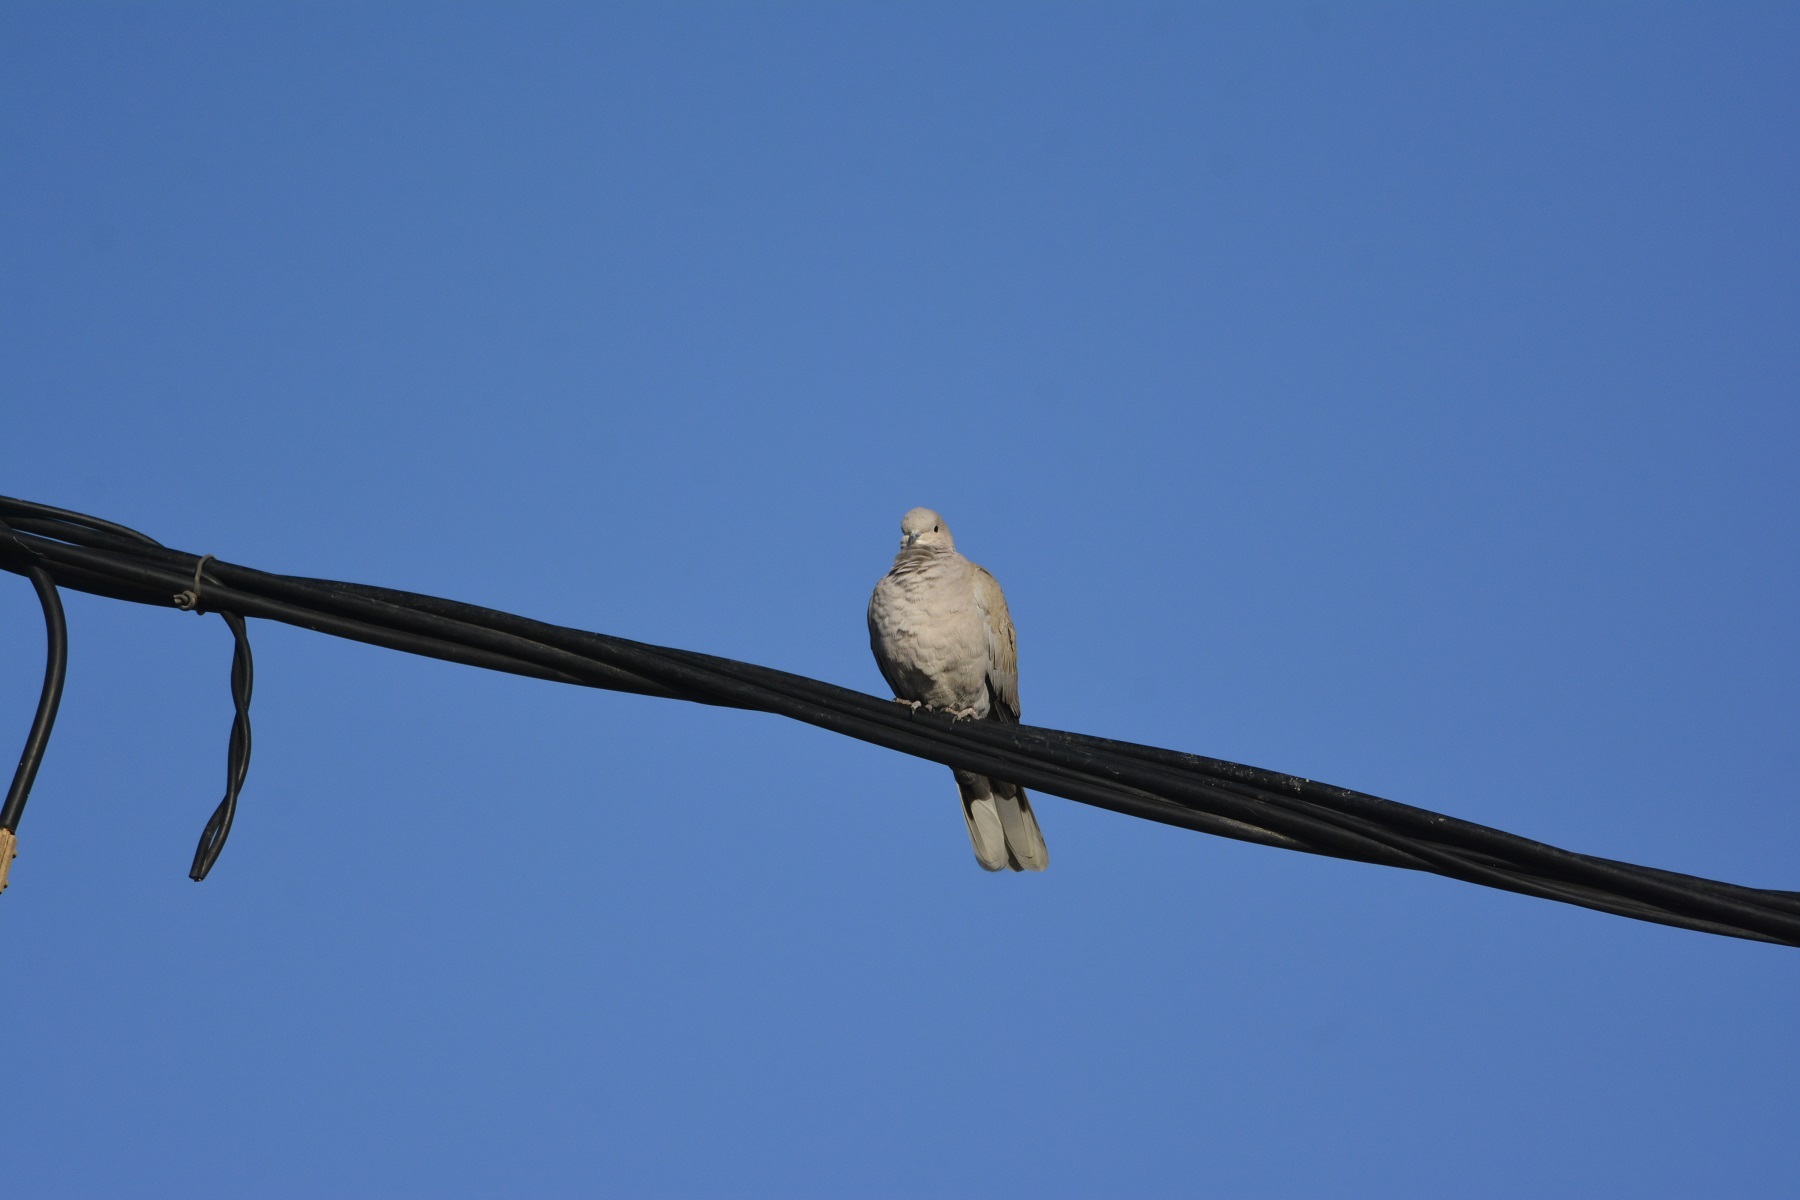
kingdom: Animalia
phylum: Chordata
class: Aves
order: Columbiformes
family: Columbidae
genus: Streptopelia
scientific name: Streptopelia decaocto
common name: Eurasian collared dove
